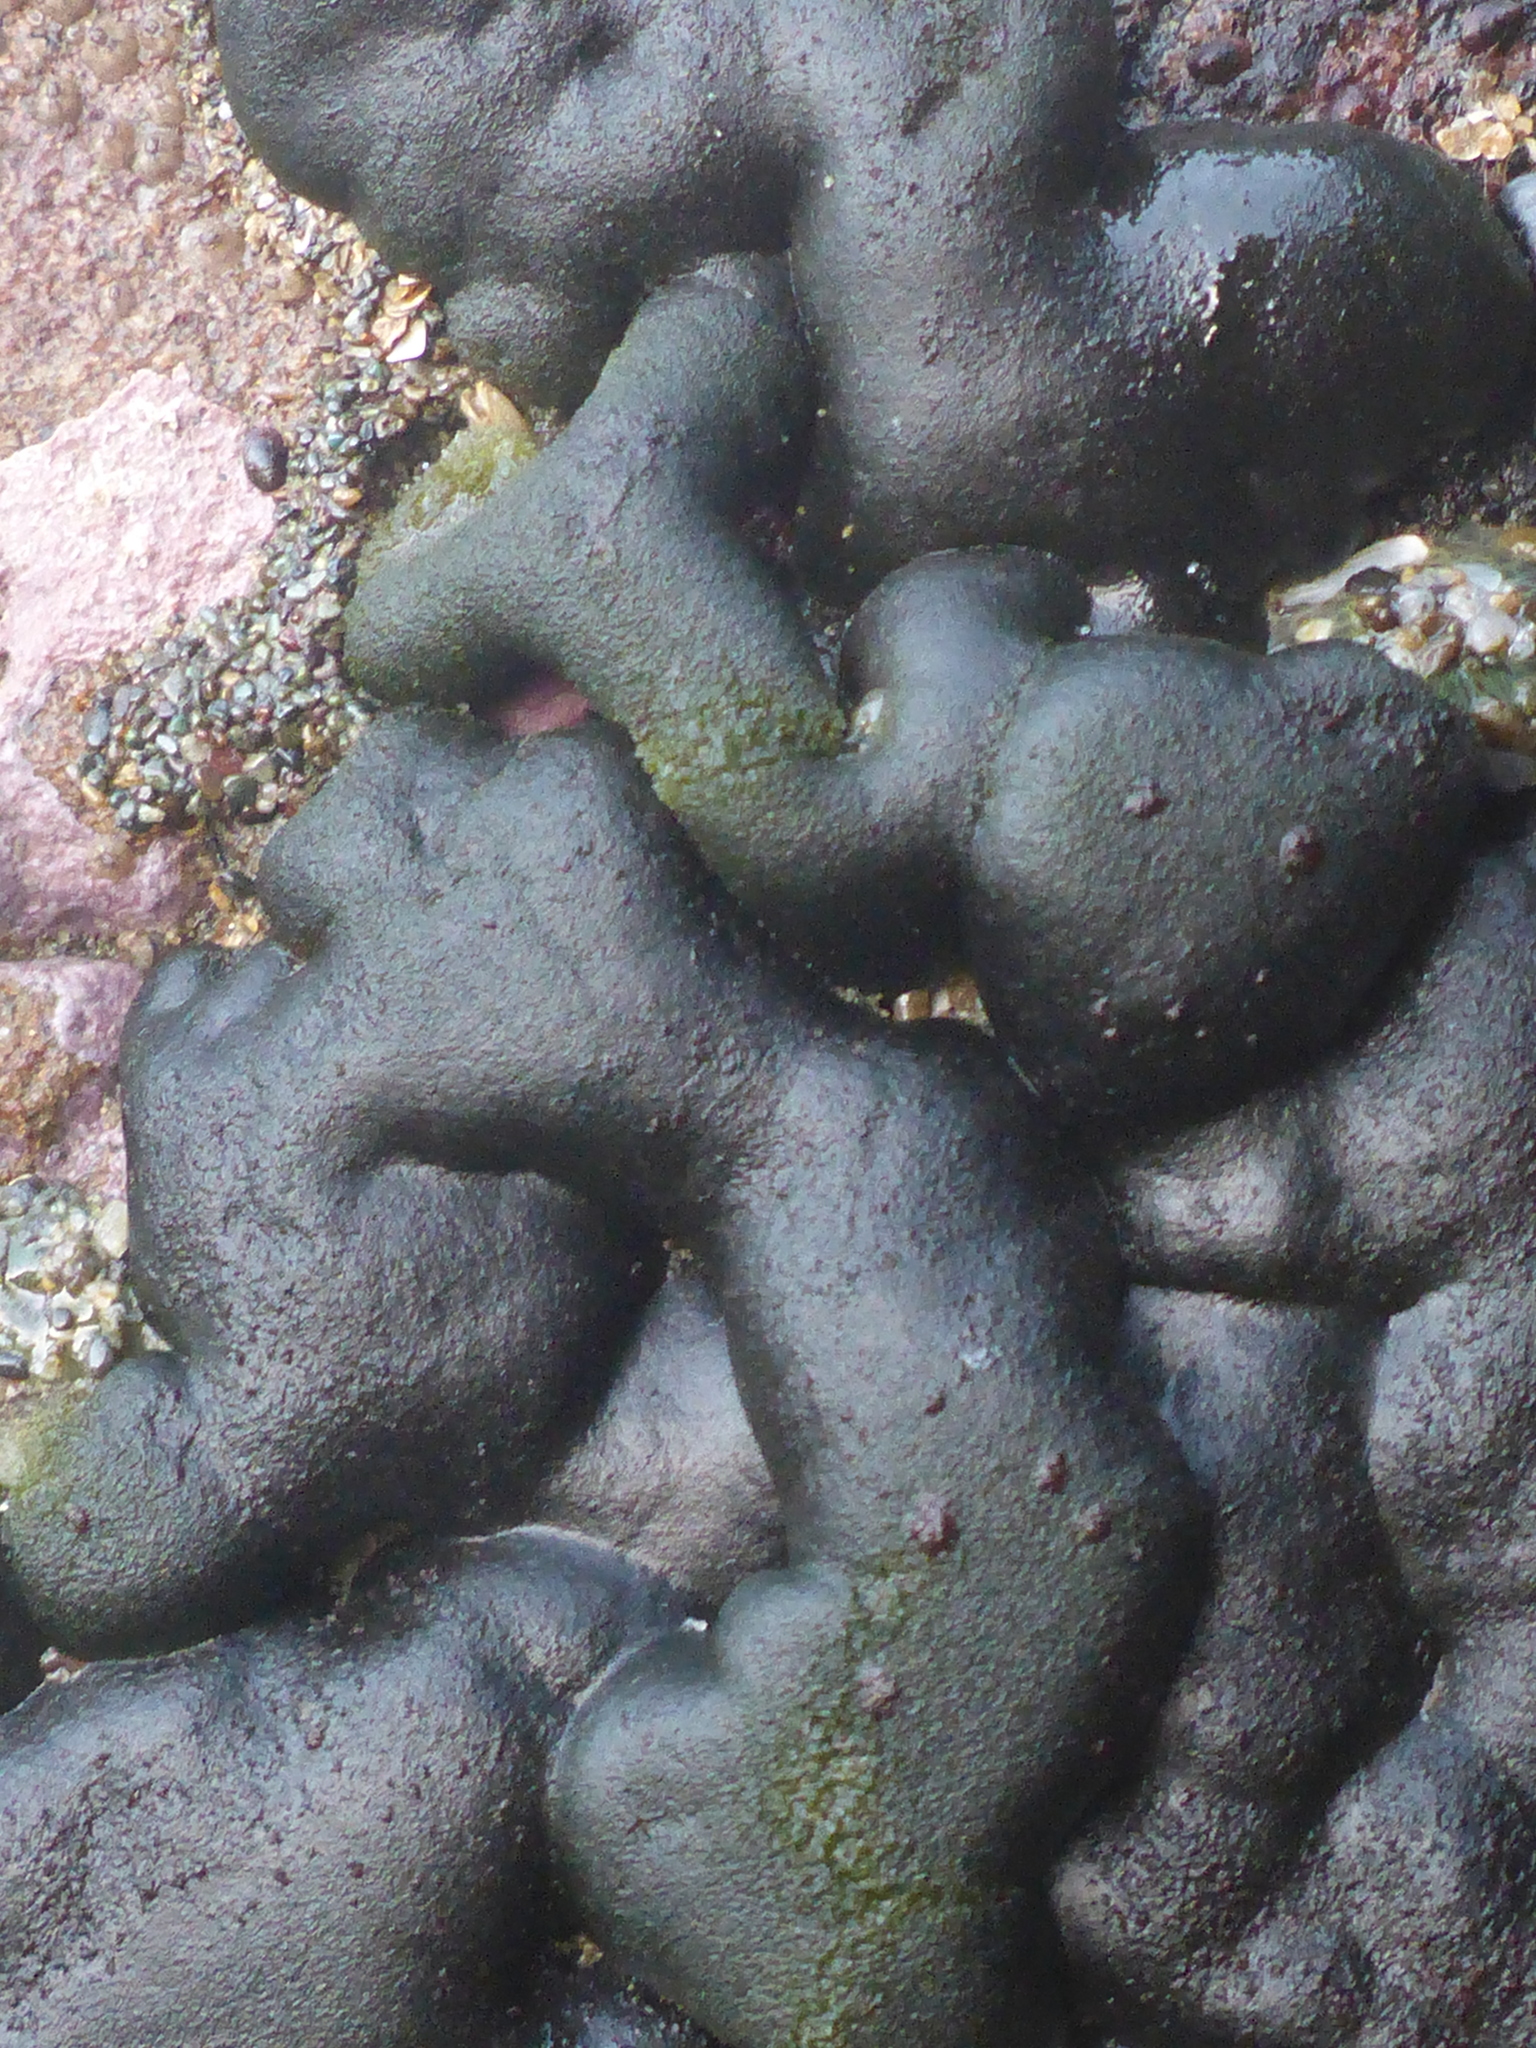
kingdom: Plantae
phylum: Chlorophyta
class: Ulvophyceae
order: Bryopsidales
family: Codiaceae
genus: Codium
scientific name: Codium setchellii
